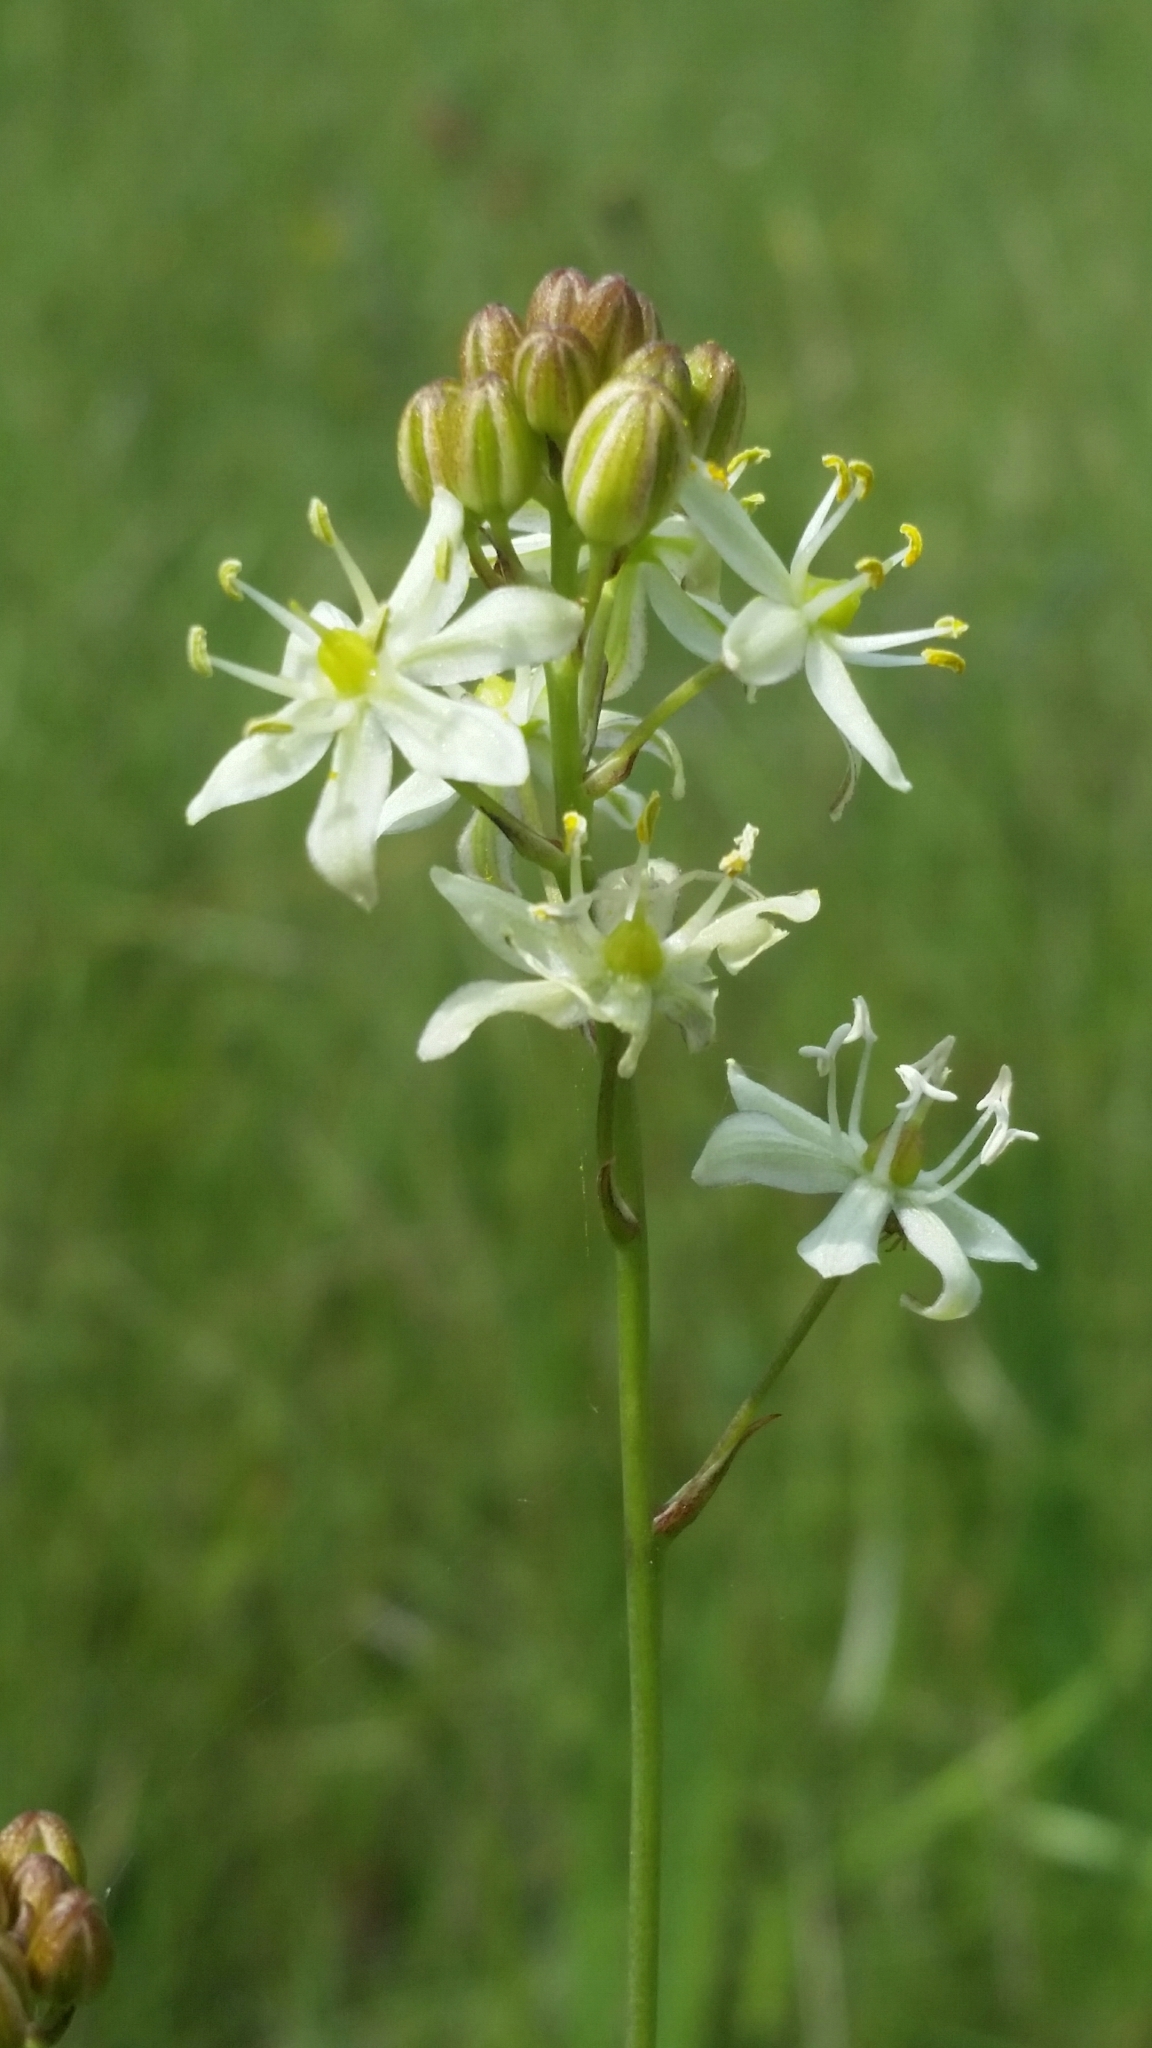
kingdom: Plantae
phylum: Tracheophyta
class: Liliopsida
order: Asparagales
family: Asparagaceae
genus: Schoenolirion
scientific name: Schoenolirion albiflorum
